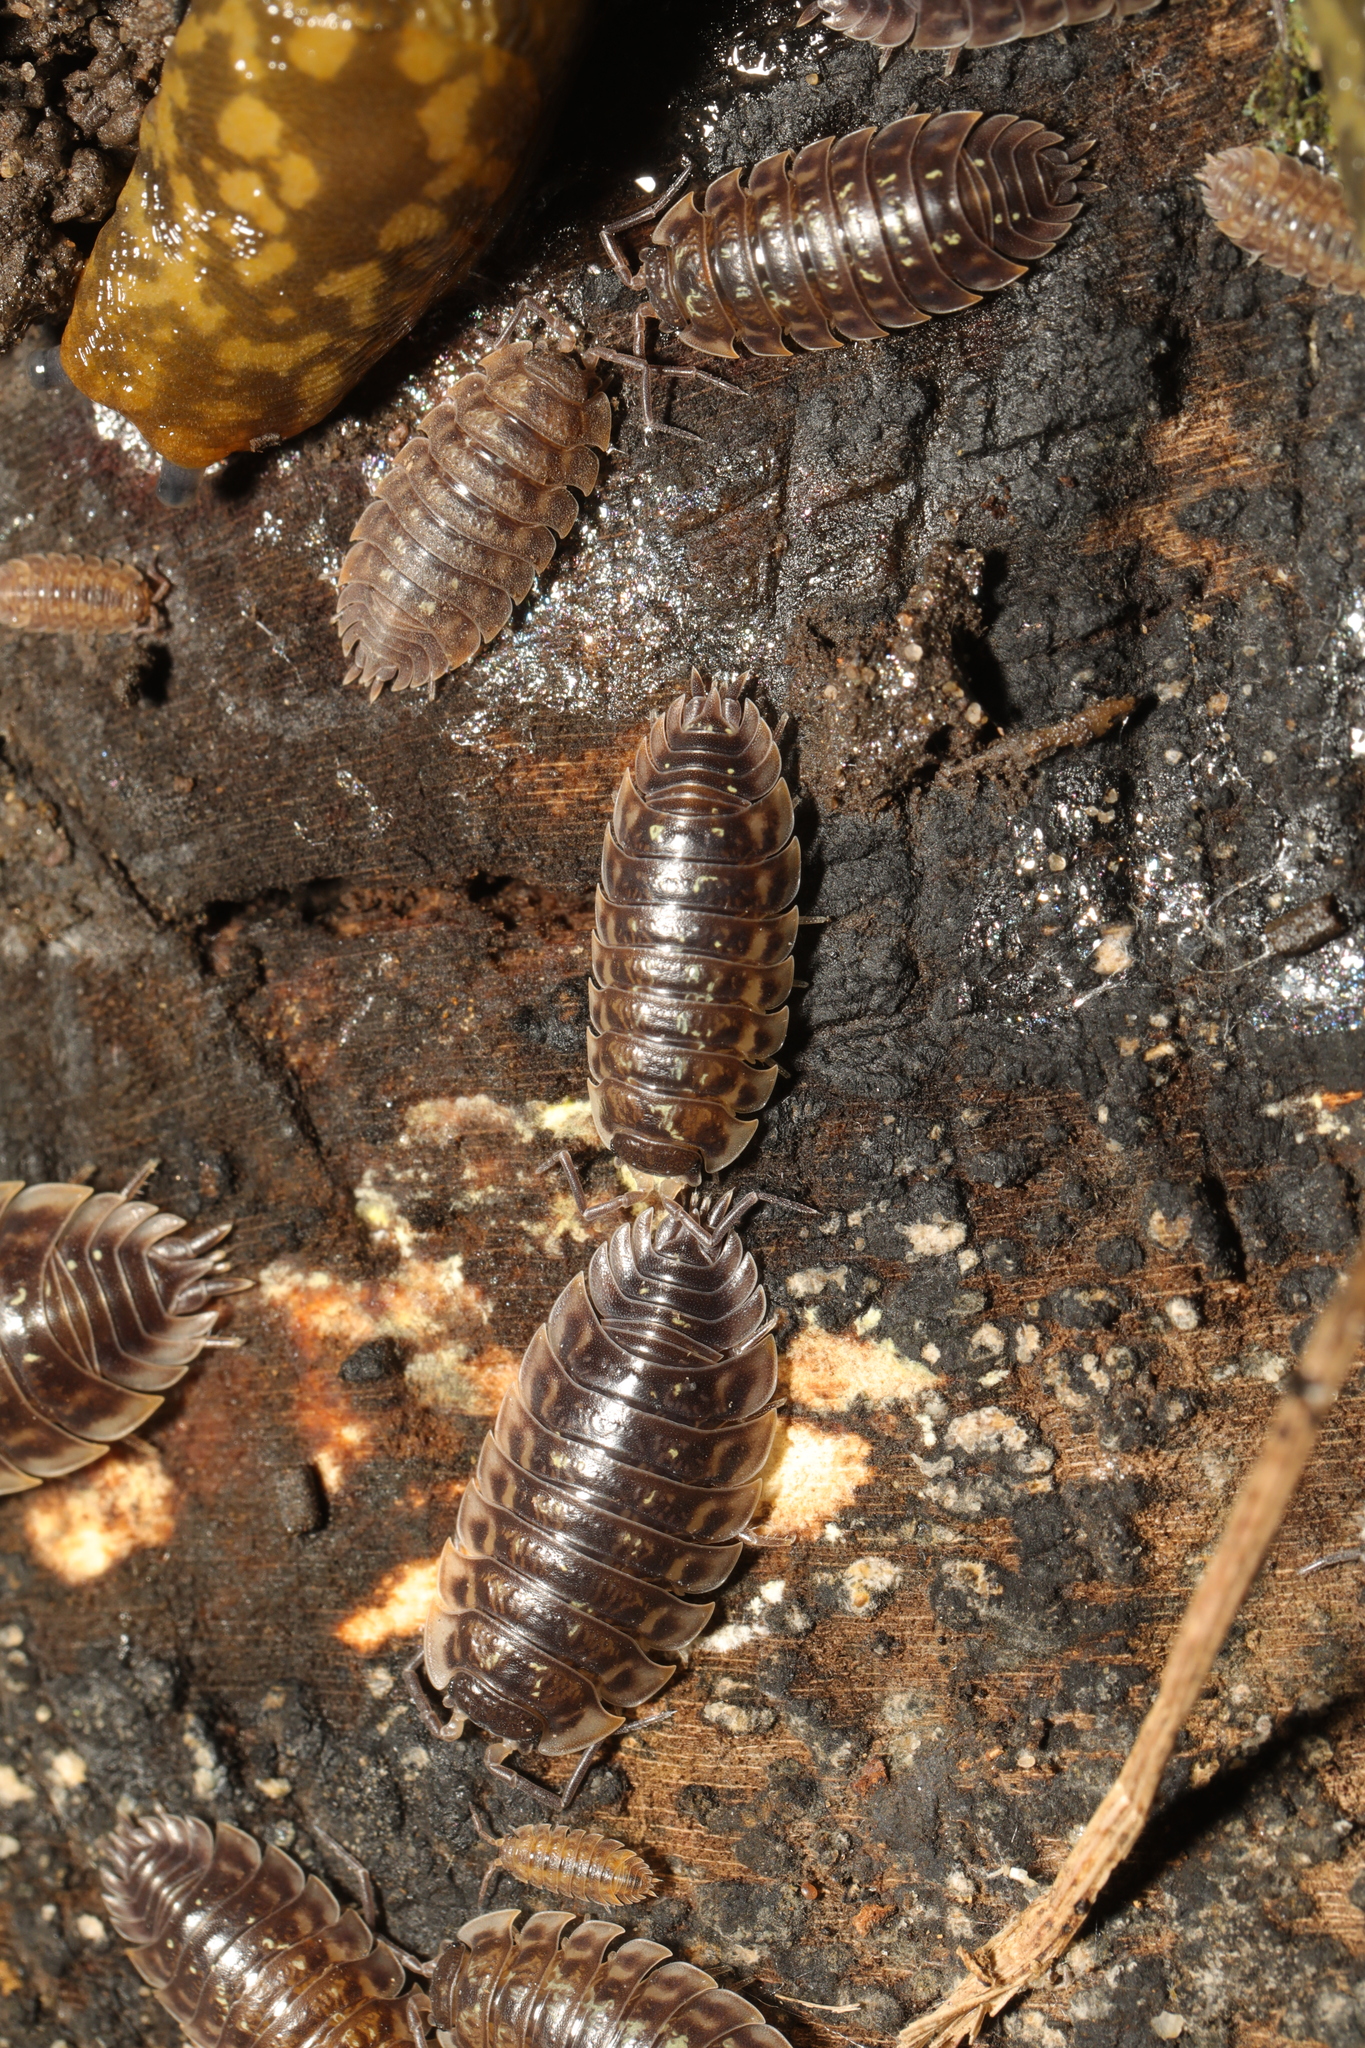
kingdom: Animalia
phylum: Arthropoda
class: Malacostraca
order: Isopoda
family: Oniscidae
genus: Oniscus
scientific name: Oniscus asellus
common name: Common shiny woodlouse
